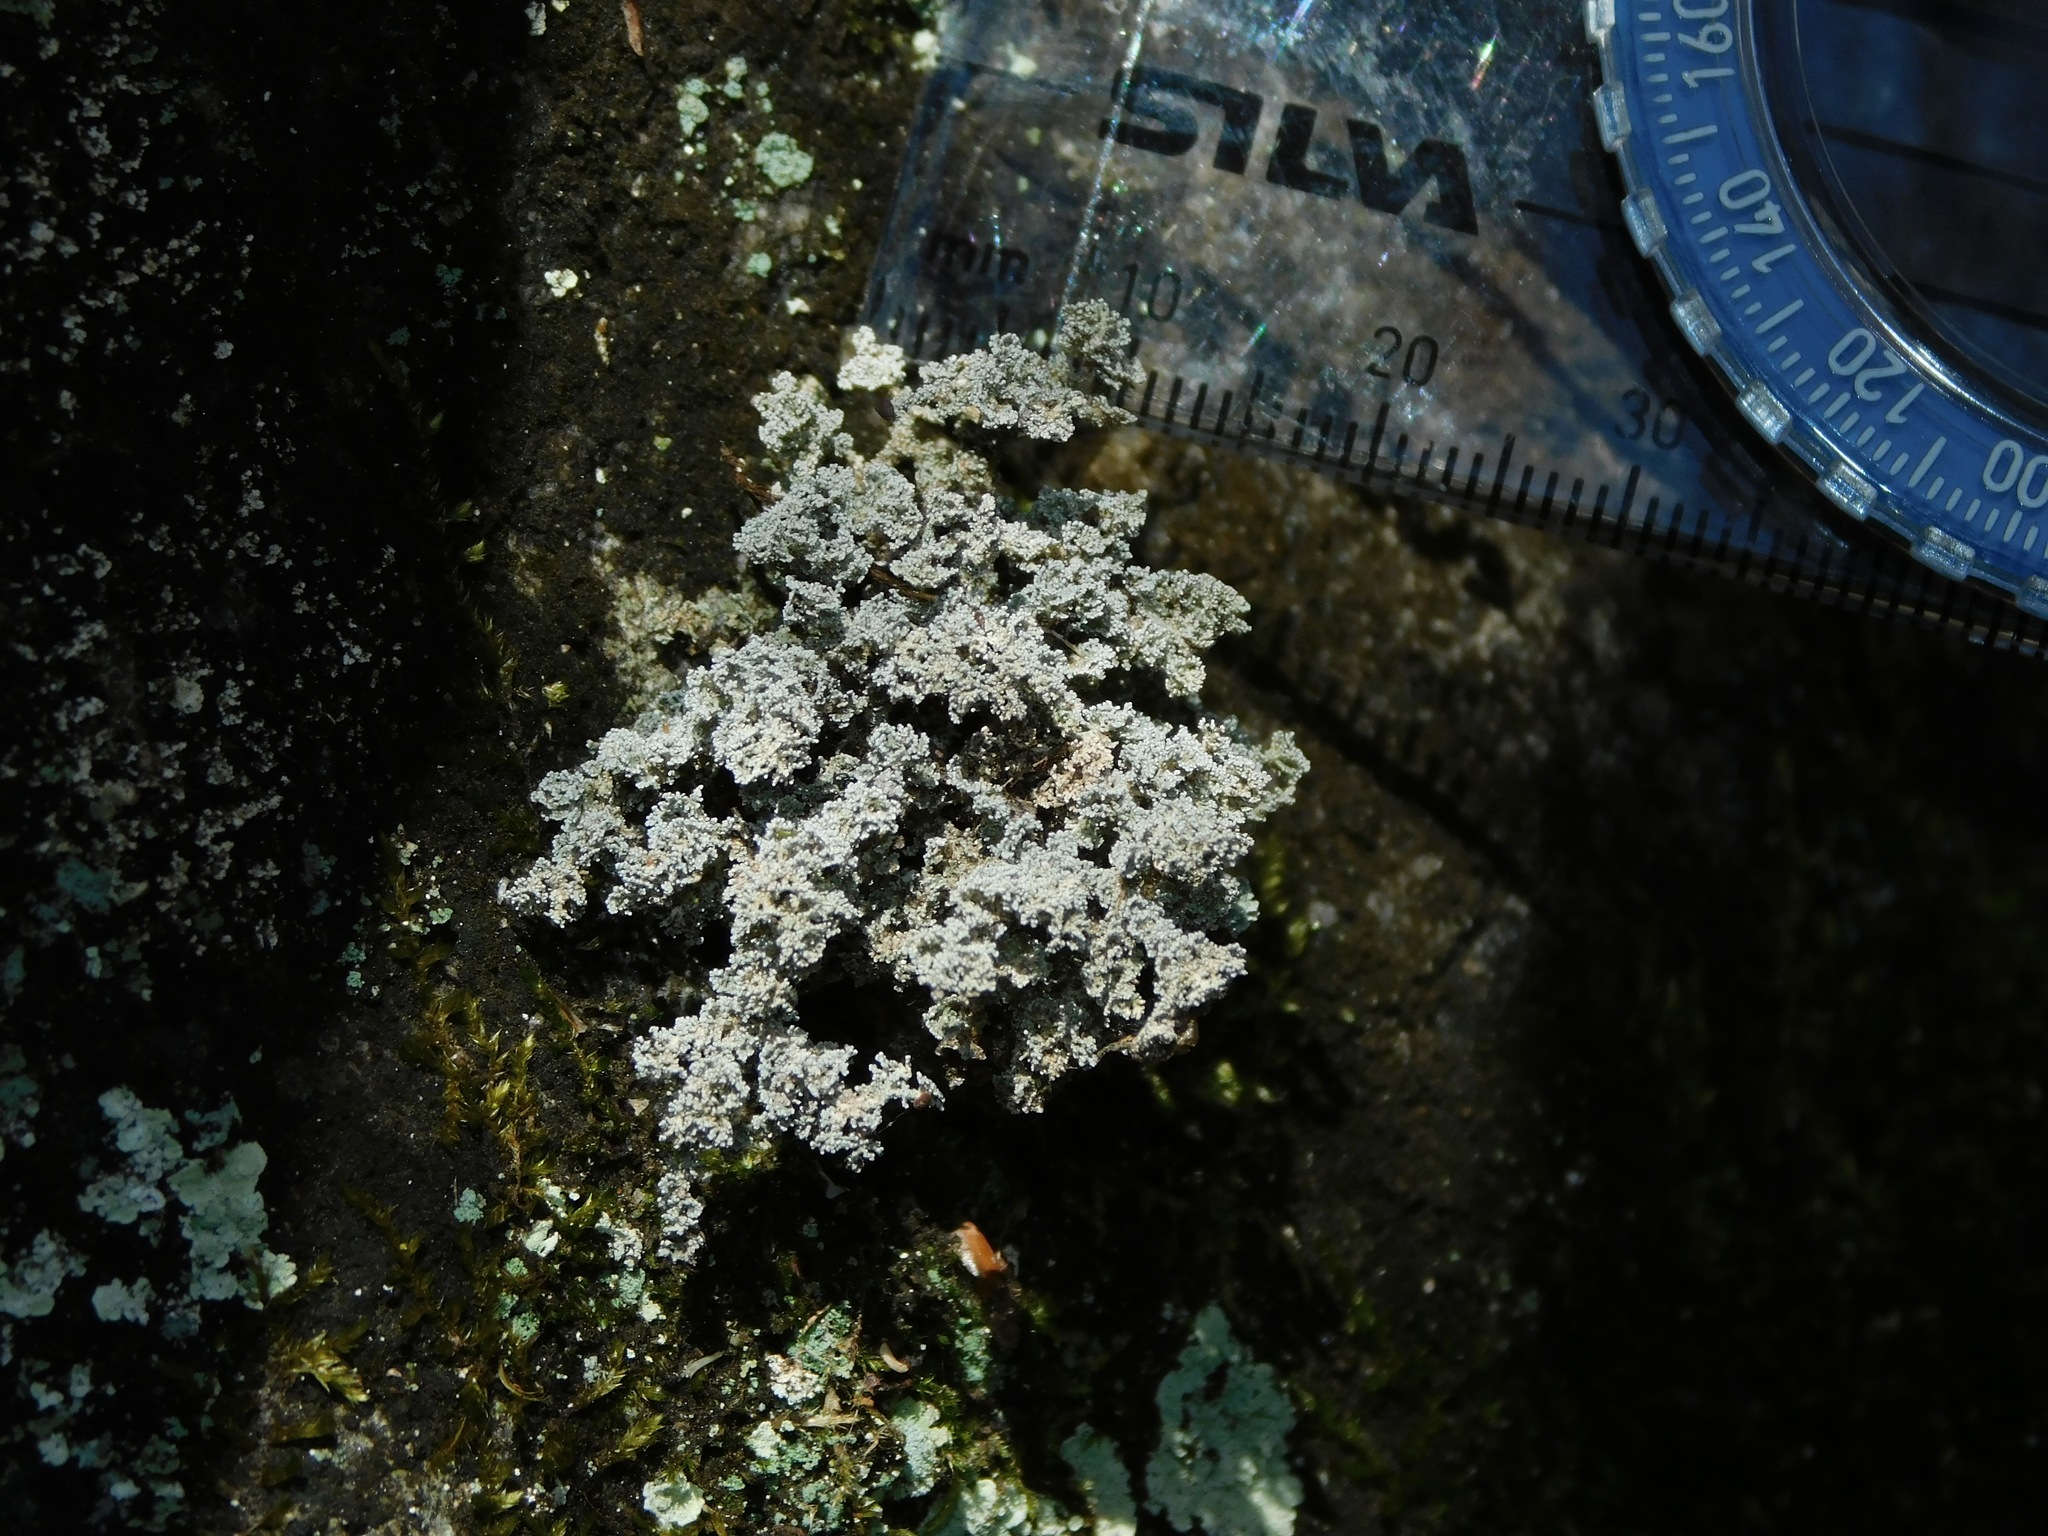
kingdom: Fungi
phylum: Ascomycota
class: Lecanoromycetes
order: Lecanorales
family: Stereocaulaceae
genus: Stereocaulon
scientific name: Stereocaulon saxatile
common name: Rock foam
